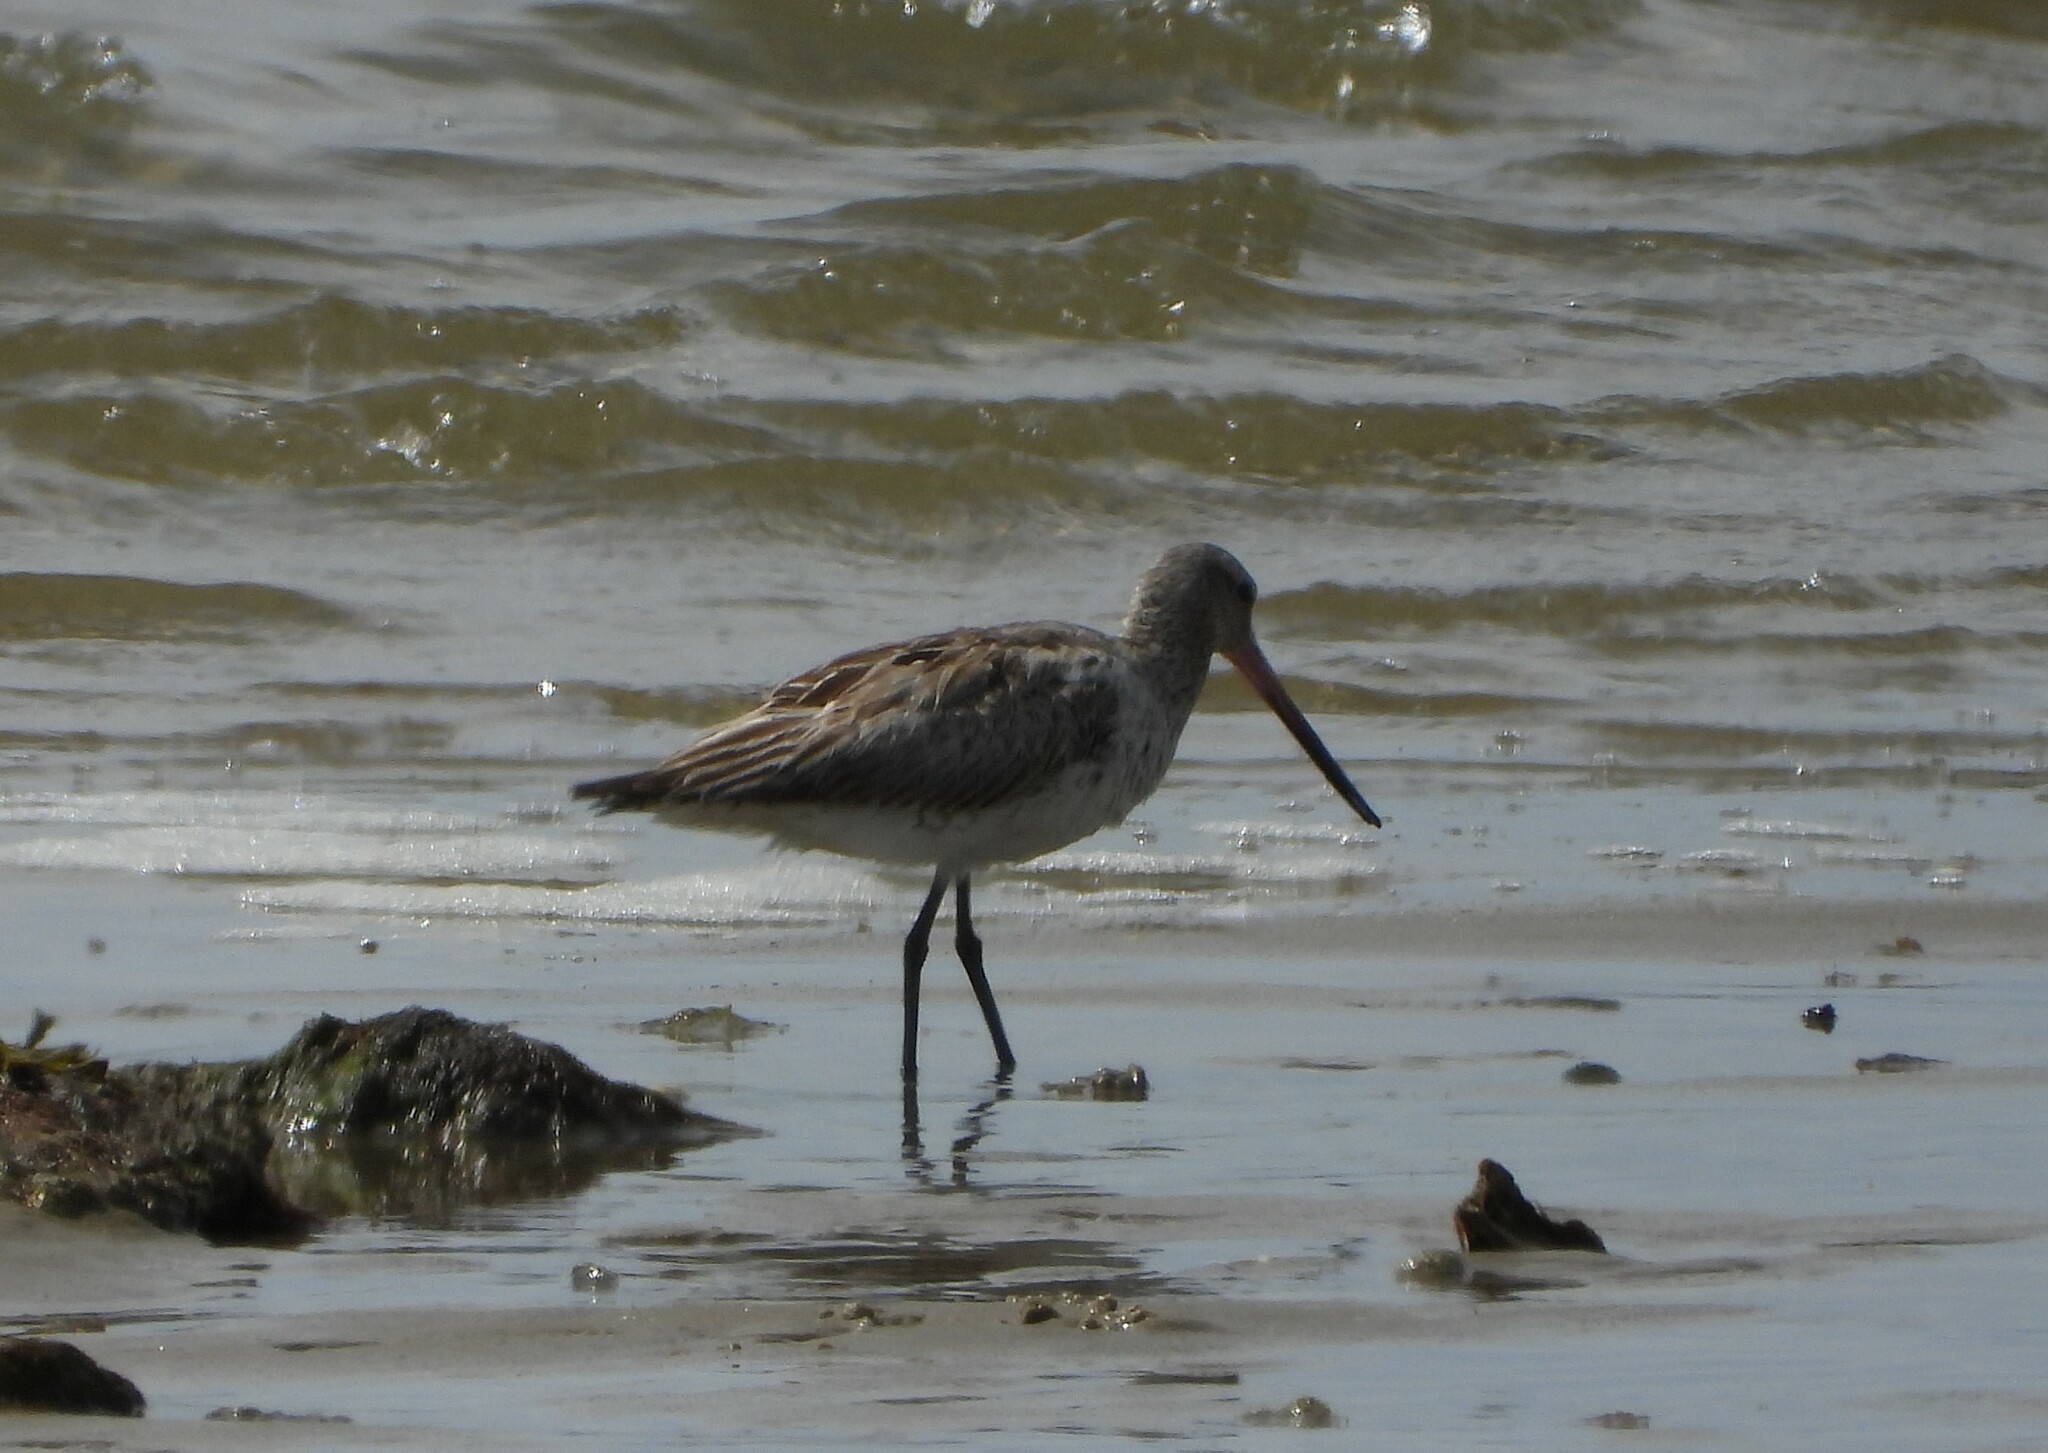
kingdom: Animalia
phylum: Chordata
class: Aves
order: Charadriiformes
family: Scolopacidae
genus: Limosa
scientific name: Limosa lapponica
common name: Bar-tailed godwit
